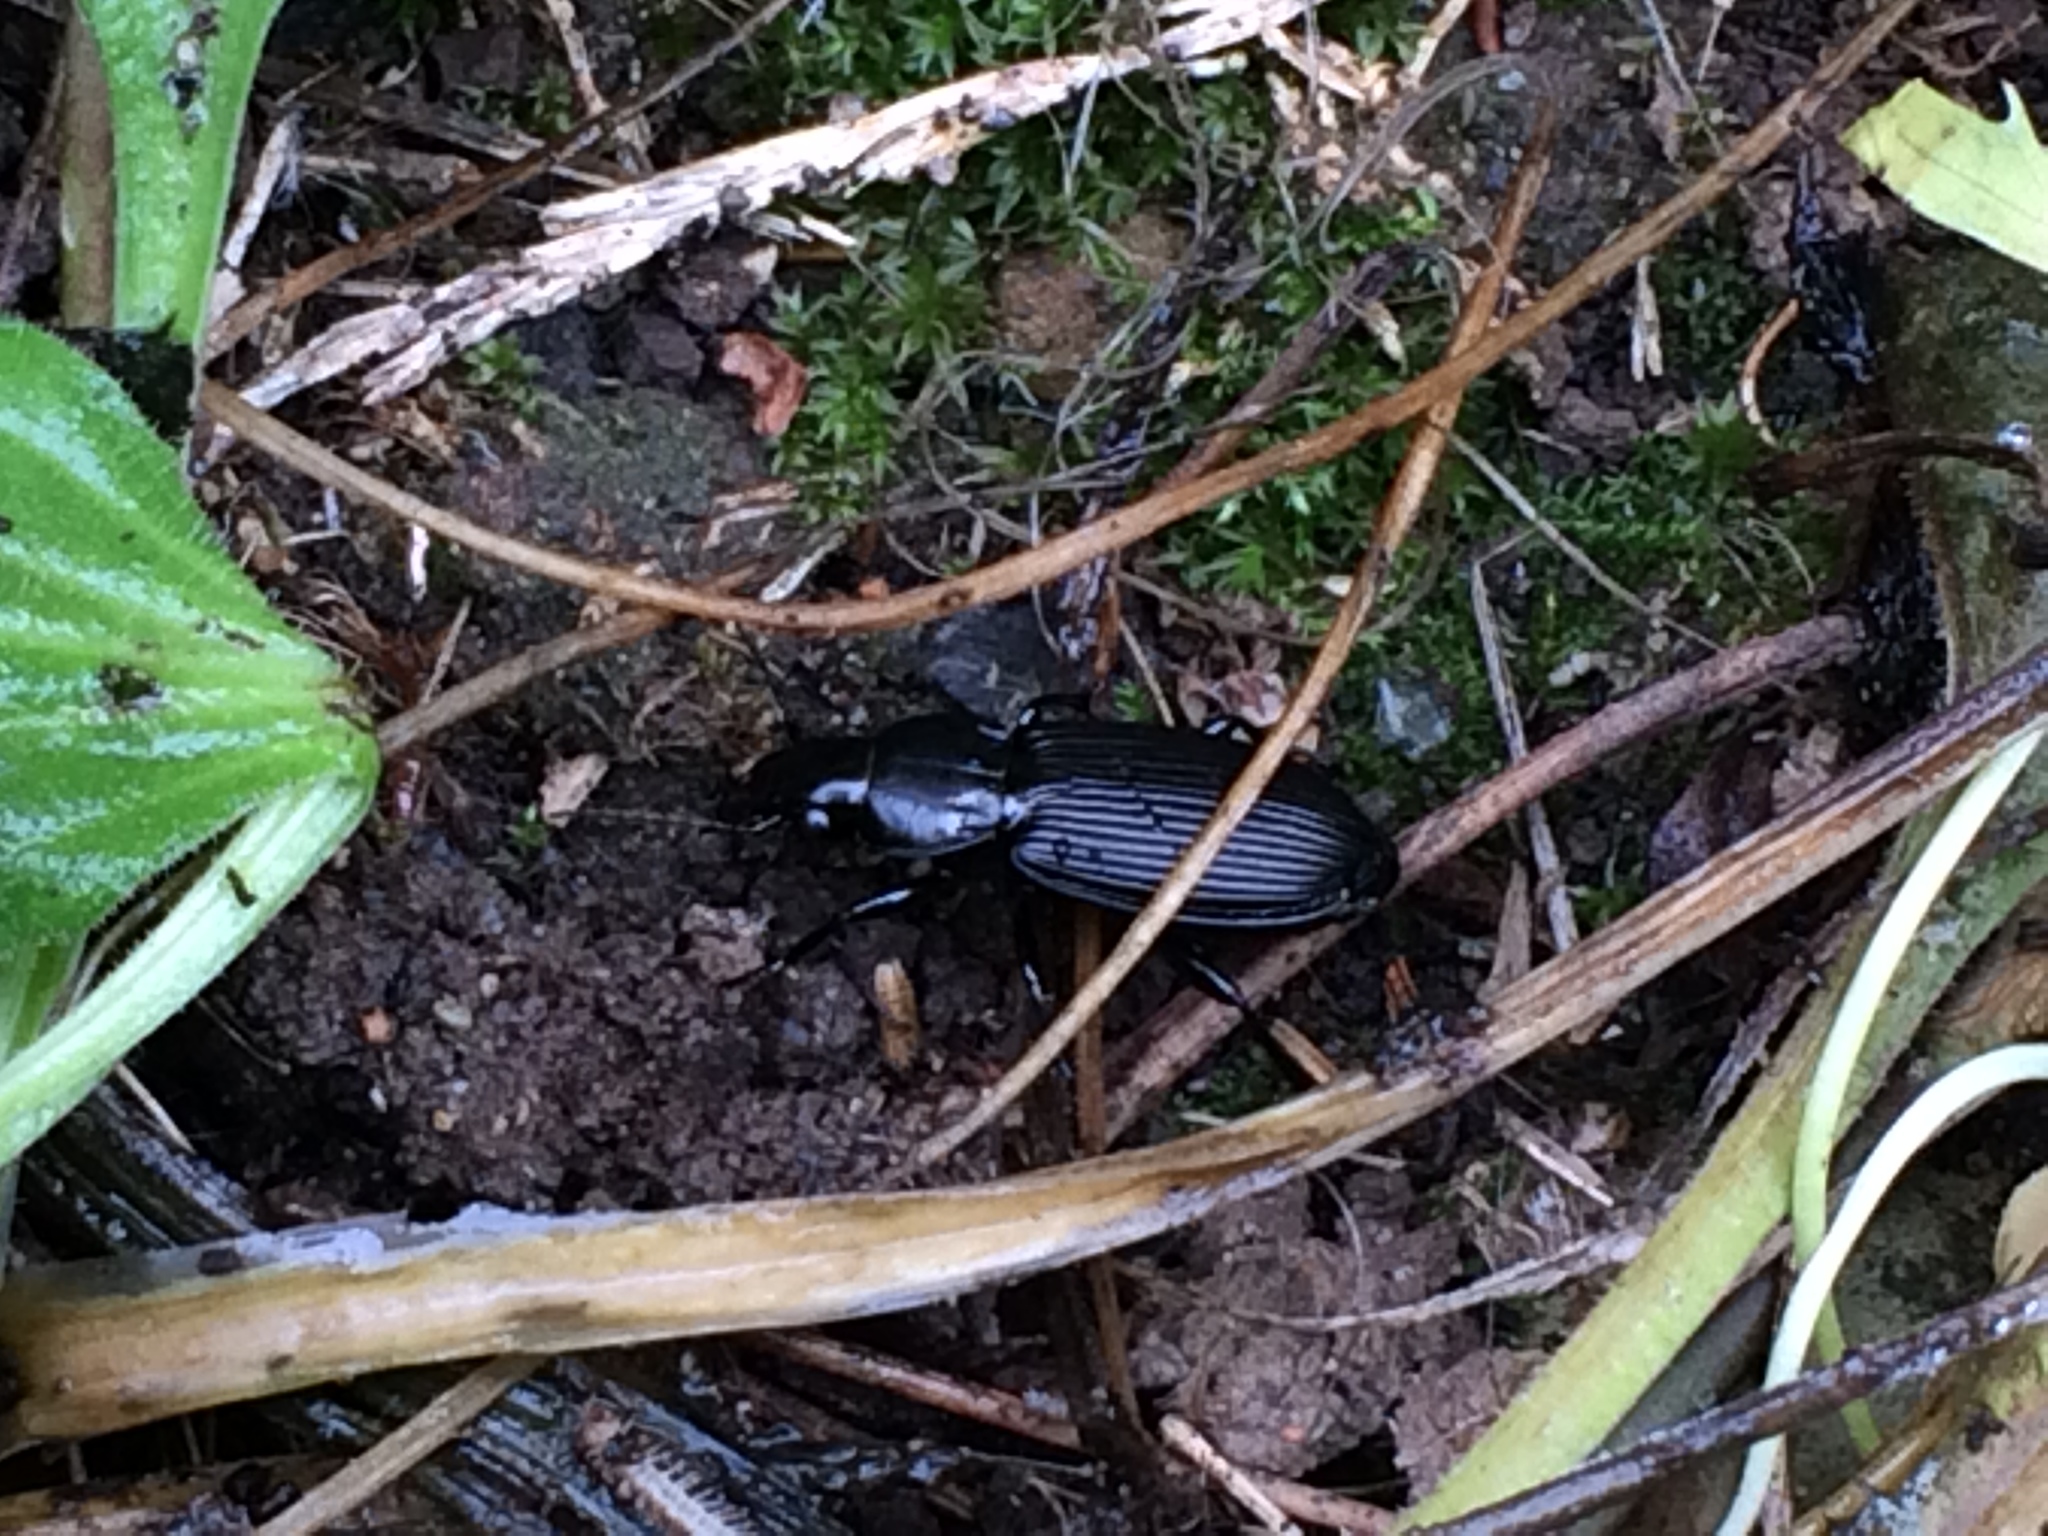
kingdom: Animalia
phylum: Arthropoda
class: Insecta
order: Coleoptera
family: Carabidae
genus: Pterostichus
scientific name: Pterostichus melanarius
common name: European dark harp ground beetle
